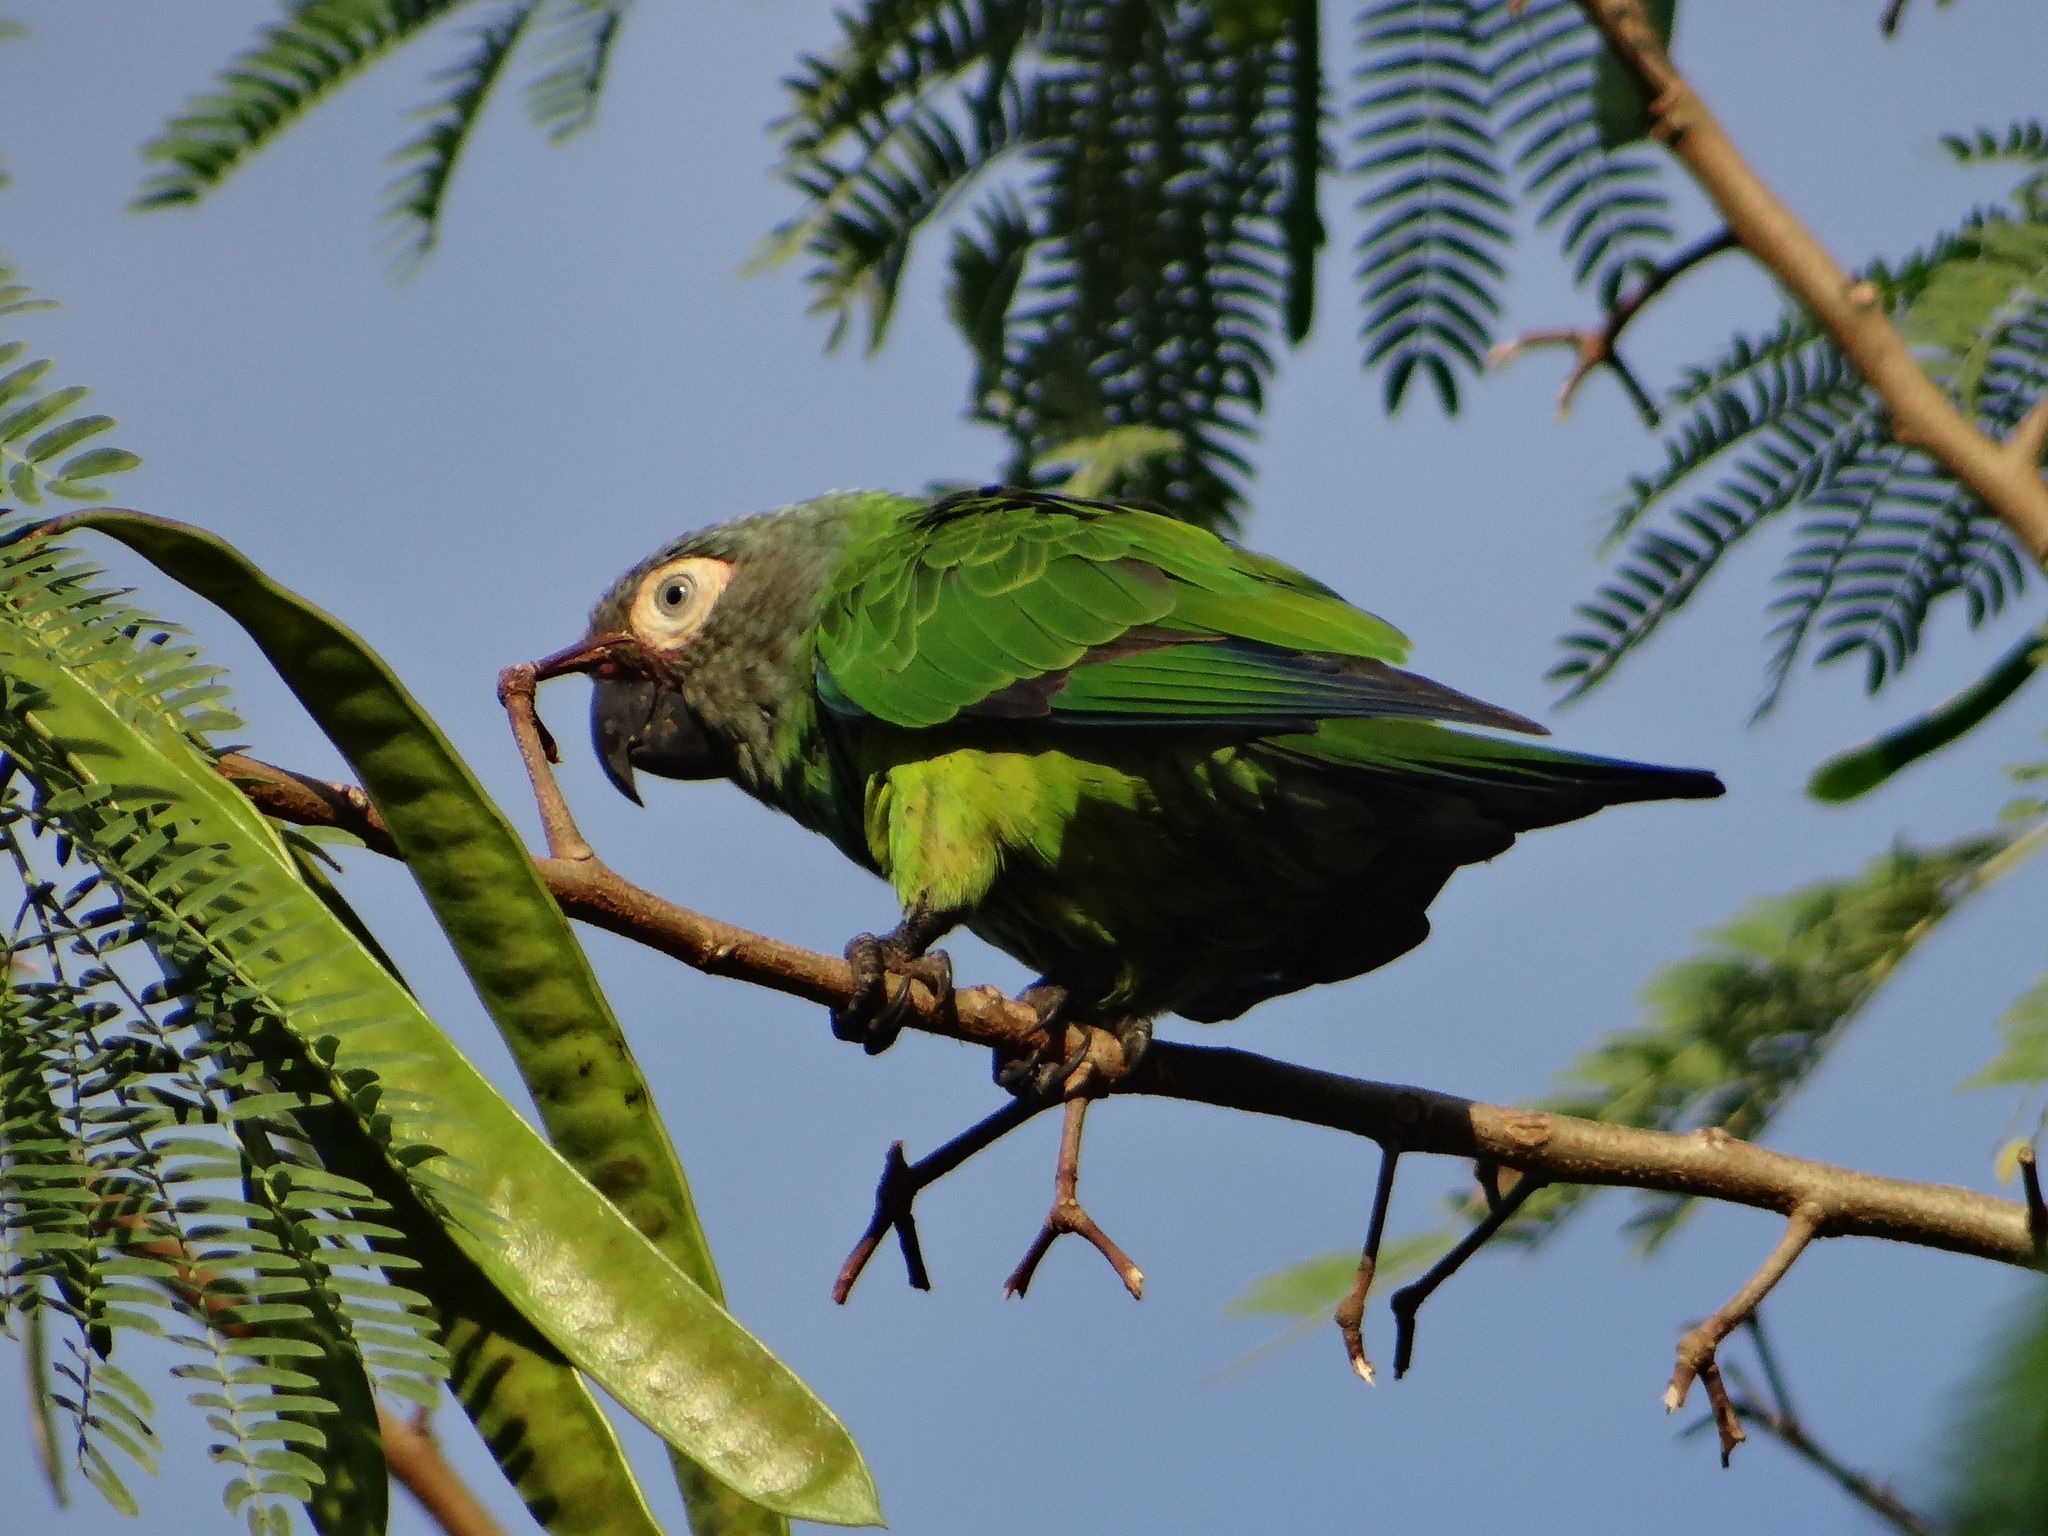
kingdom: Animalia
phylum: Chordata
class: Aves
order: Psittaciformes
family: Psittacidae
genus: Aratinga
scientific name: Aratinga weddellii
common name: Dusky-headed parakeet
